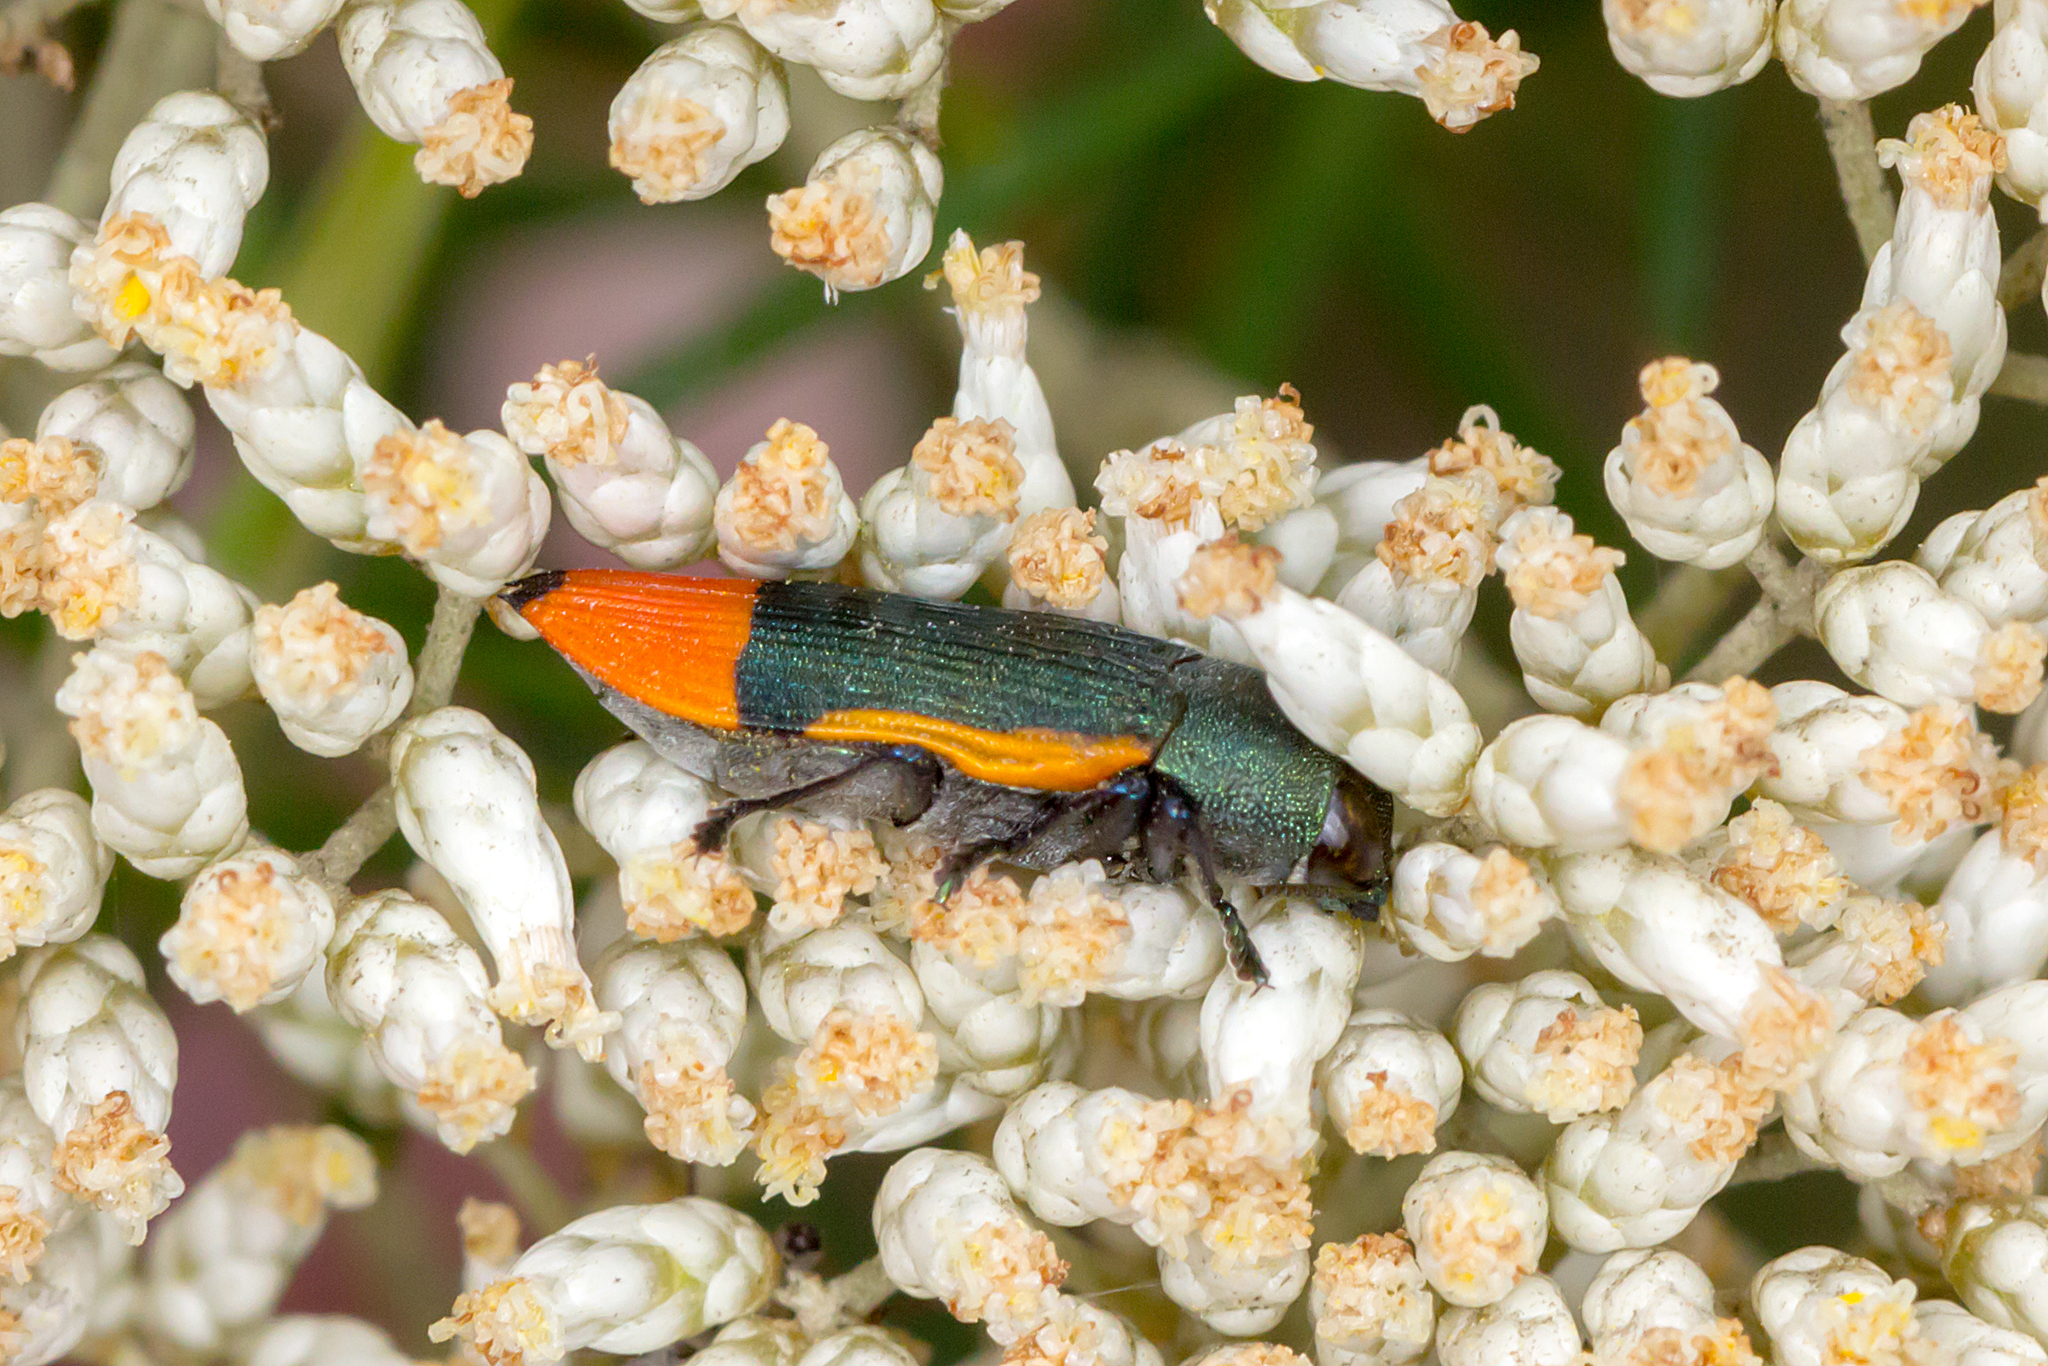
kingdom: Animalia
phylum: Arthropoda
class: Insecta
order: Coleoptera
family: Buprestidae
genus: Castiarina
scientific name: Castiarina kerremansi
